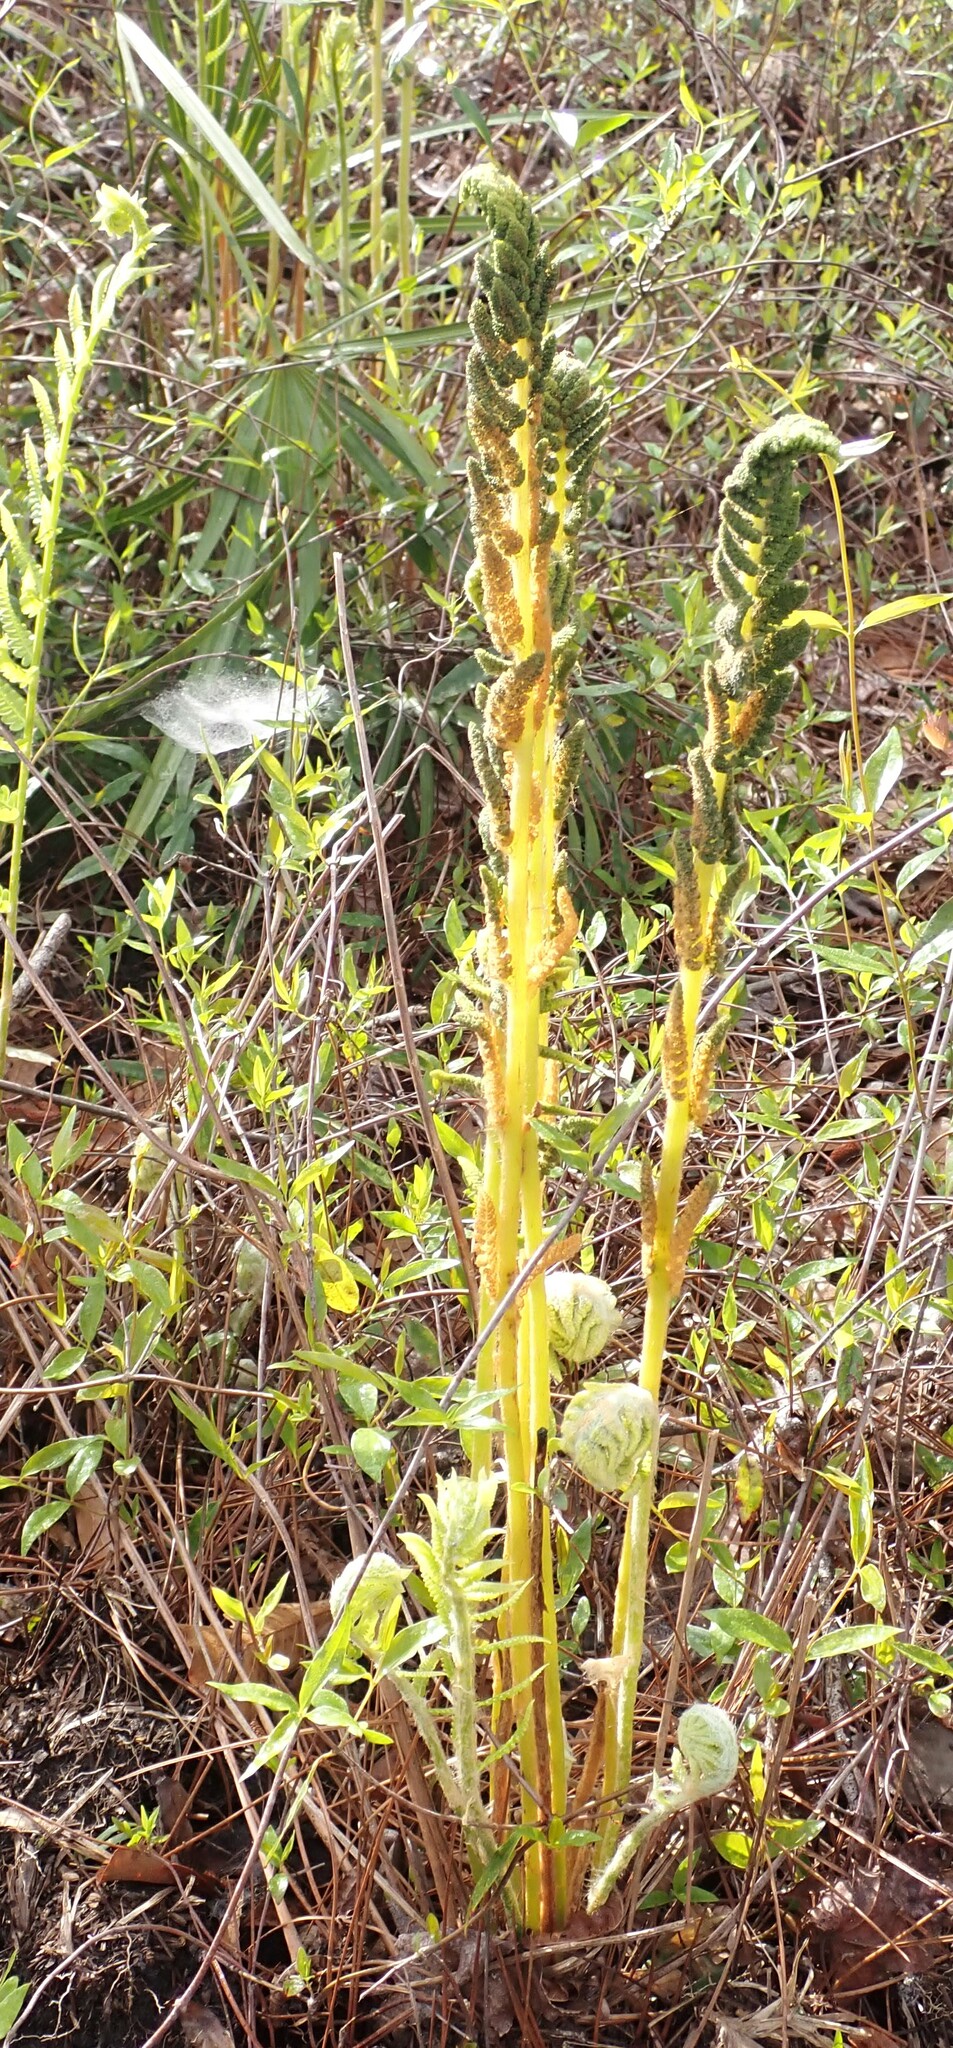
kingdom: Plantae
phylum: Tracheophyta
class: Polypodiopsida
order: Osmundales
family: Osmundaceae
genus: Osmundastrum
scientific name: Osmundastrum cinnamomeum
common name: Cinnamon fern
